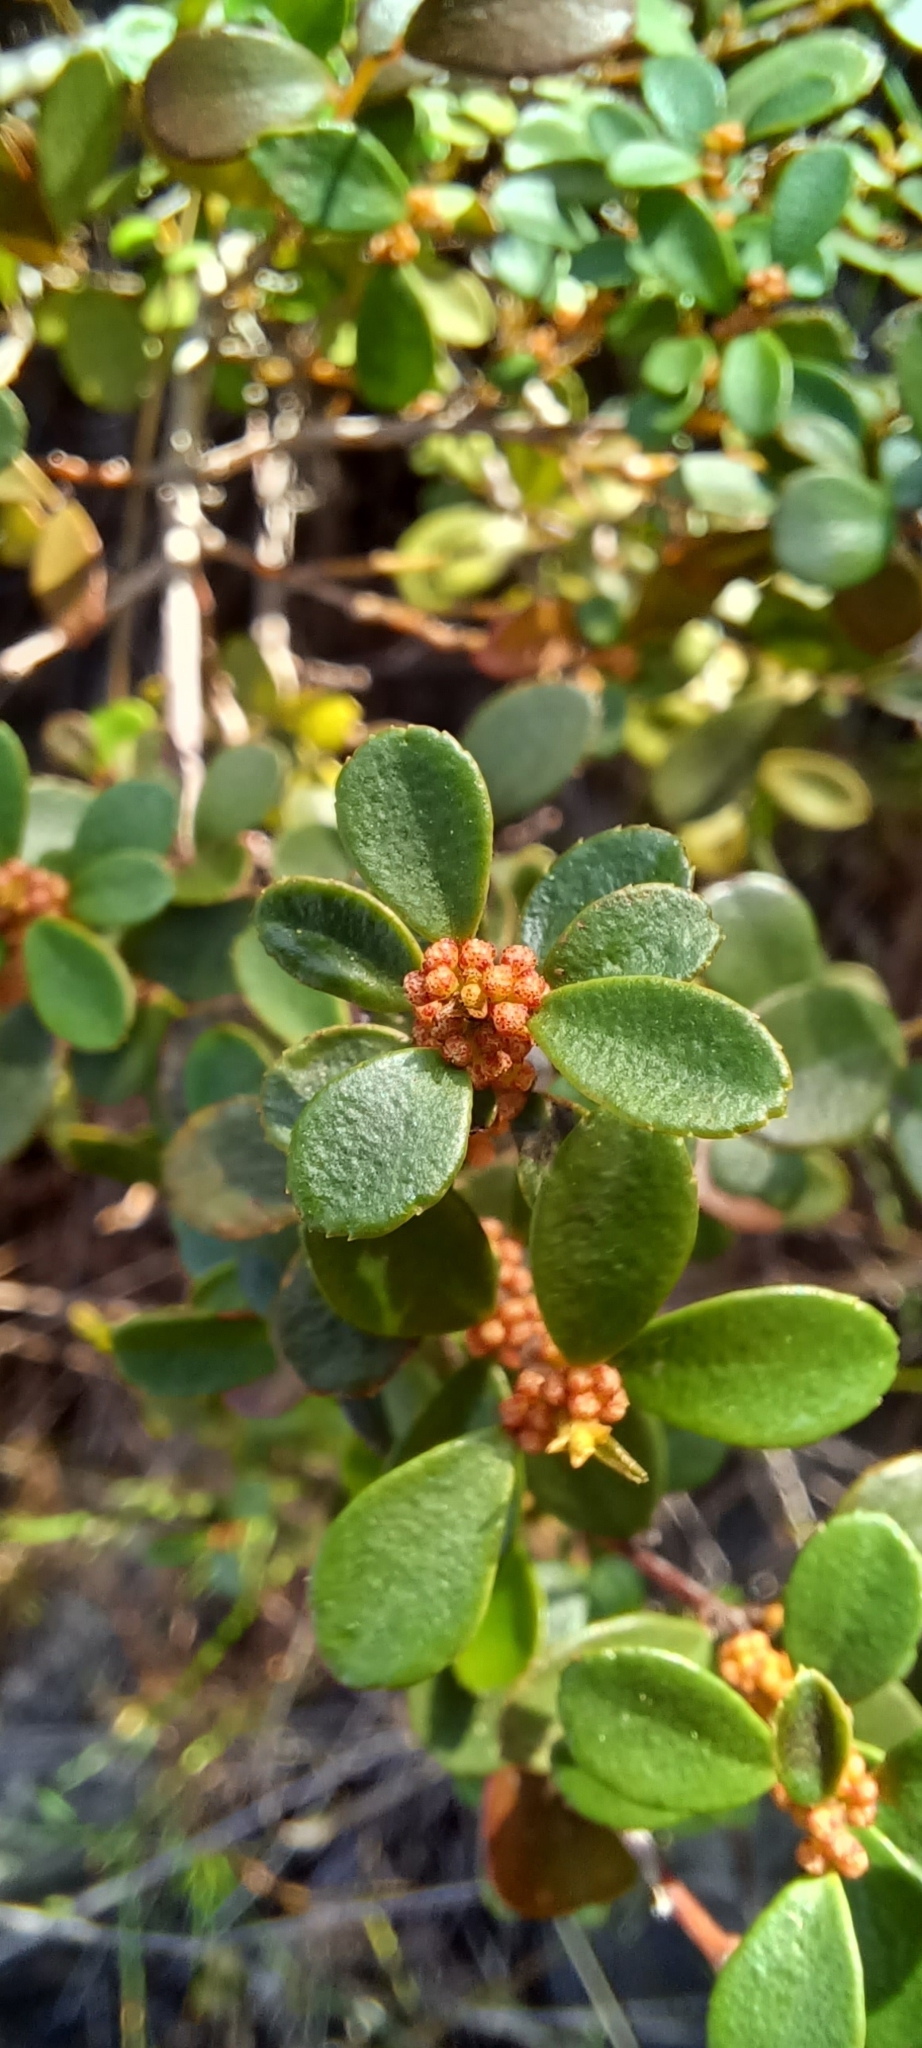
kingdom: Plantae
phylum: Tracheophyta
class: Magnoliopsida
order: Ericales
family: Primulaceae
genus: Myrsine
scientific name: Myrsine africana
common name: African-boxwood
